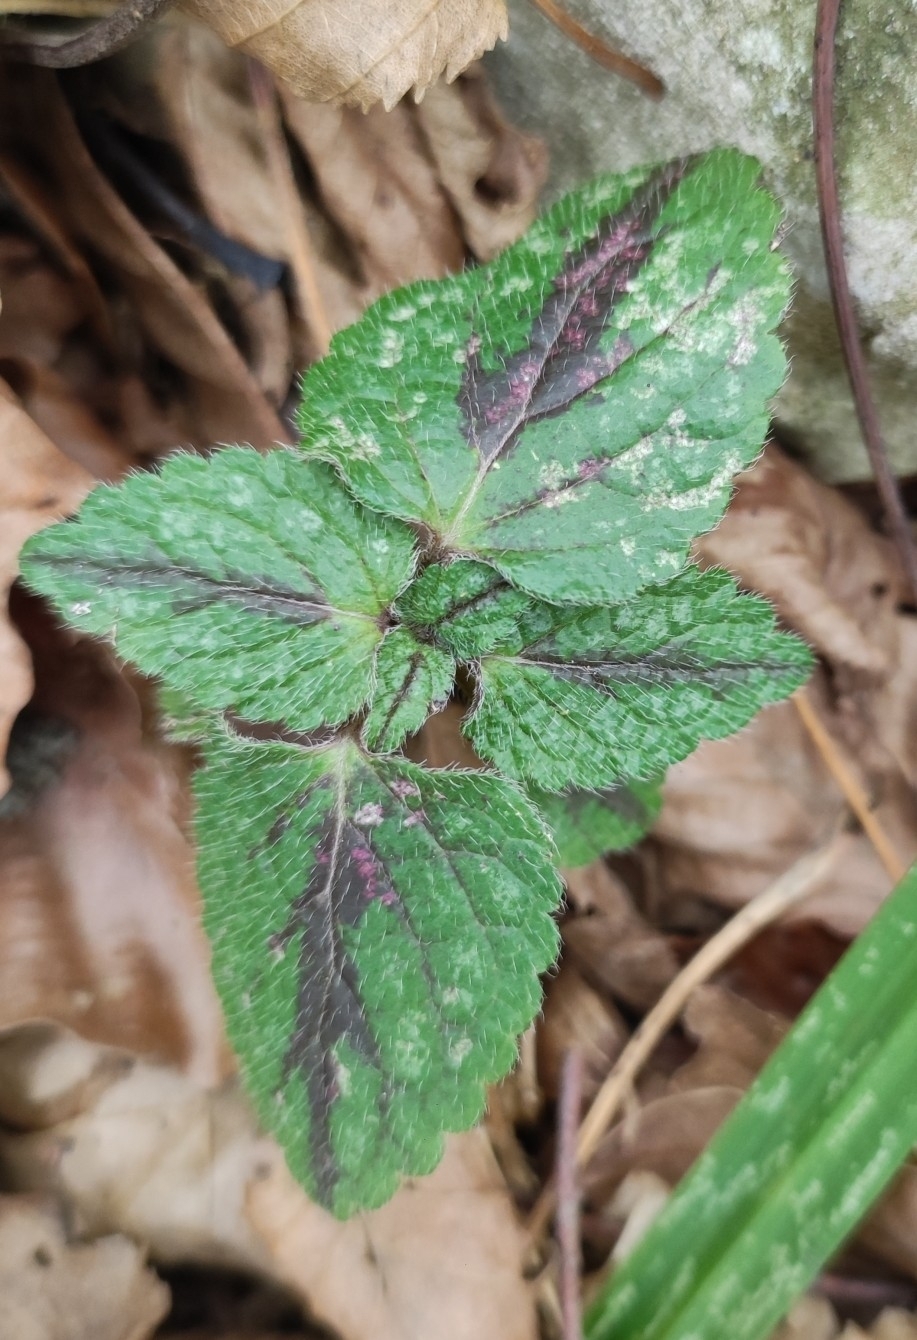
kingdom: Plantae
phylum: Tracheophyta
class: Magnoliopsida
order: Lamiales
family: Lamiaceae
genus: Lamium
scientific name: Lamium galeobdolon
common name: Yellow archangel
